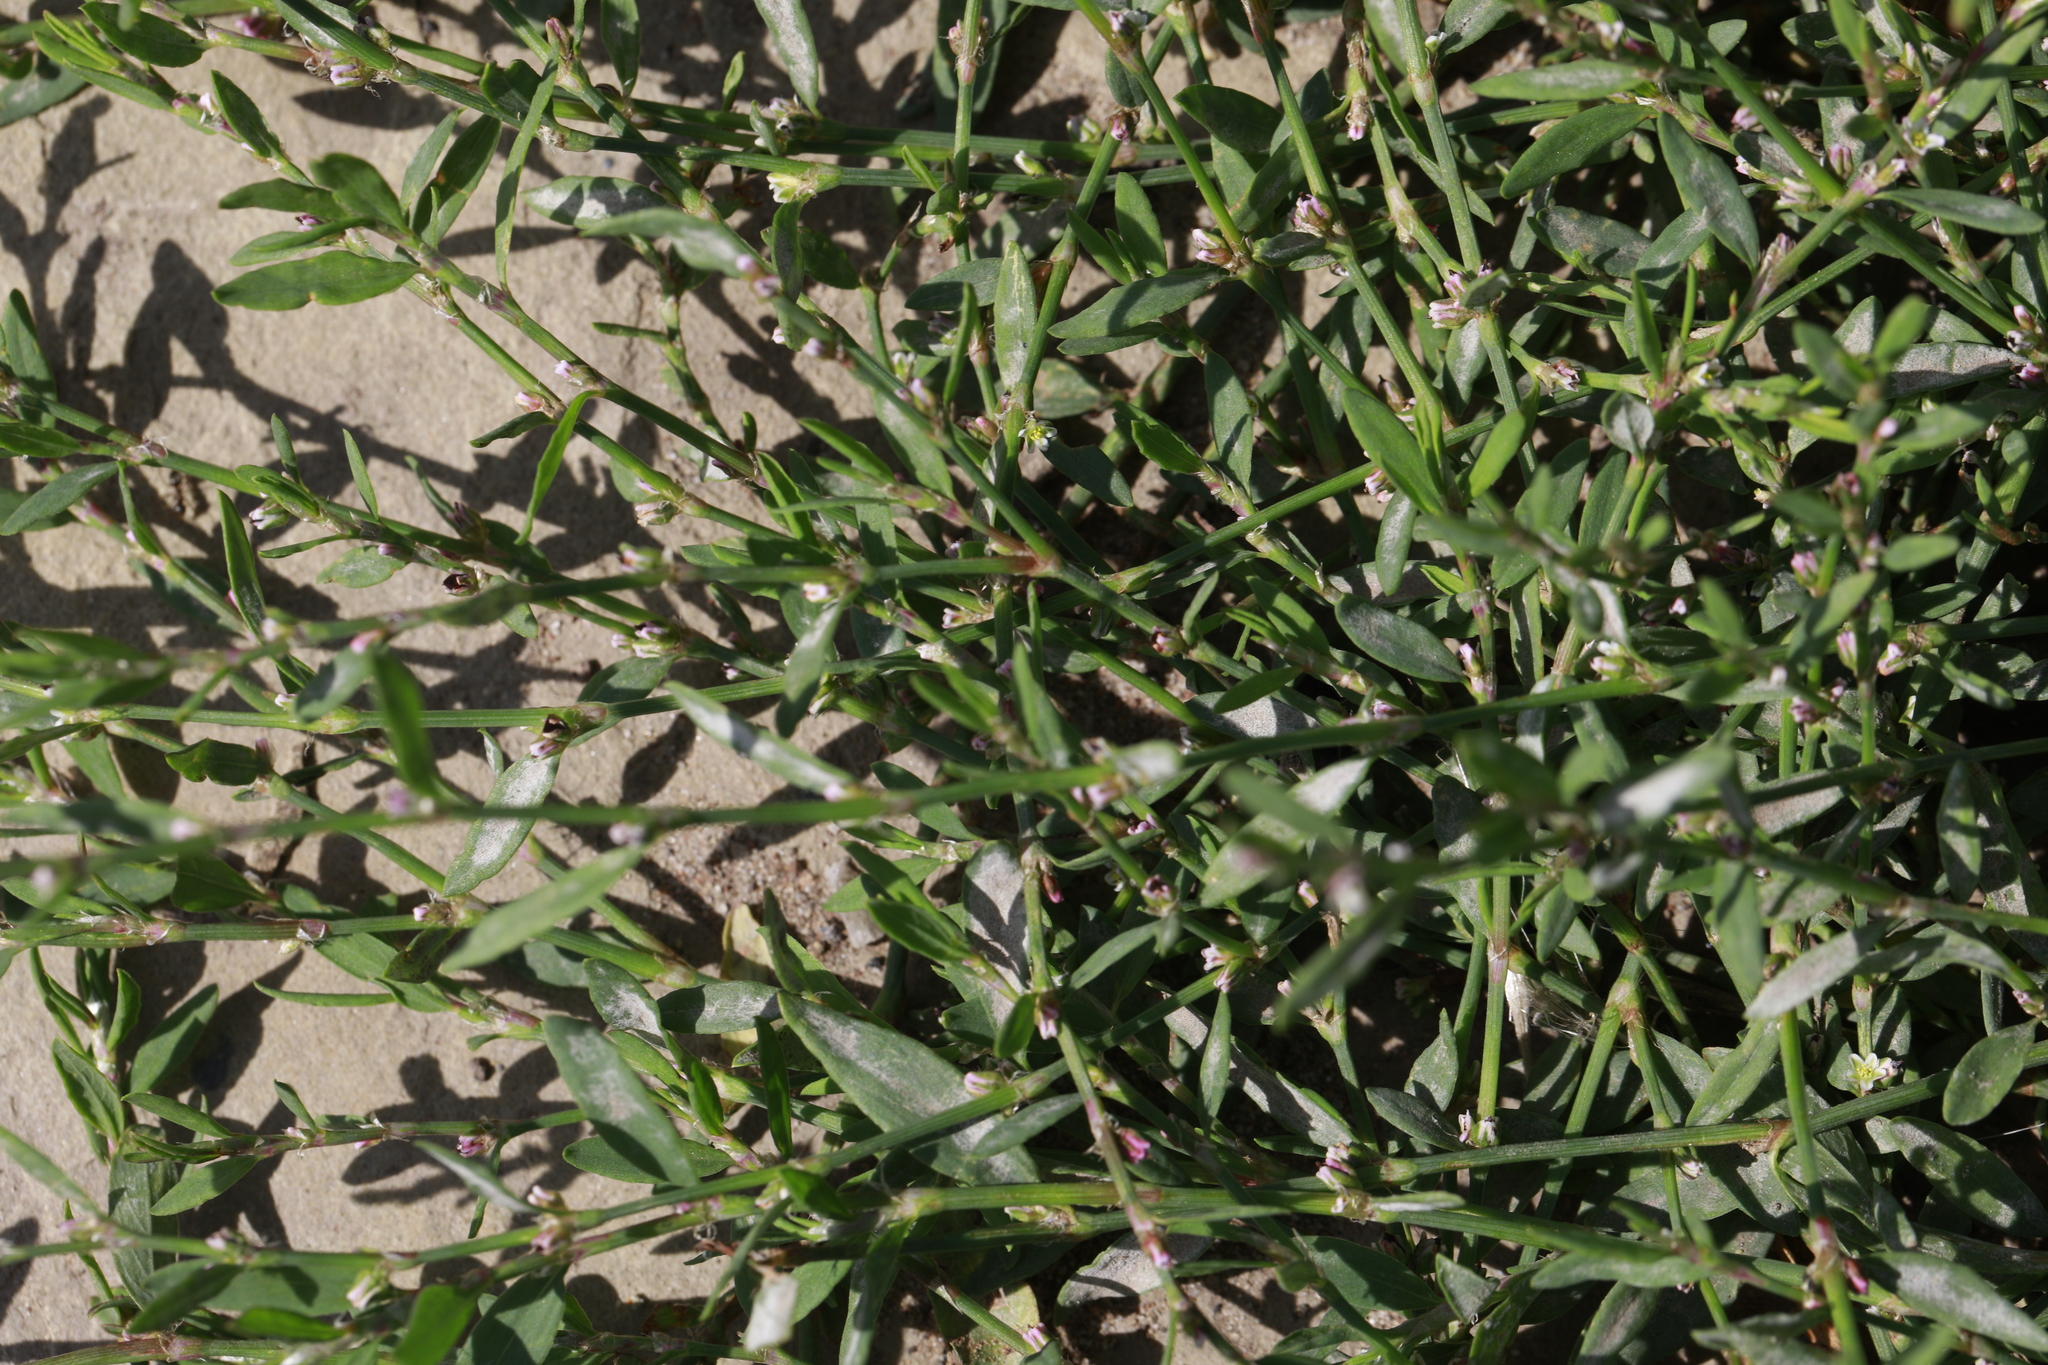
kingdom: Fungi
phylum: Ascomycota
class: Leotiomycetes
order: Helotiales
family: Erysiphaceae
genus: Erysiphe
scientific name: Erysiphe polygoni
